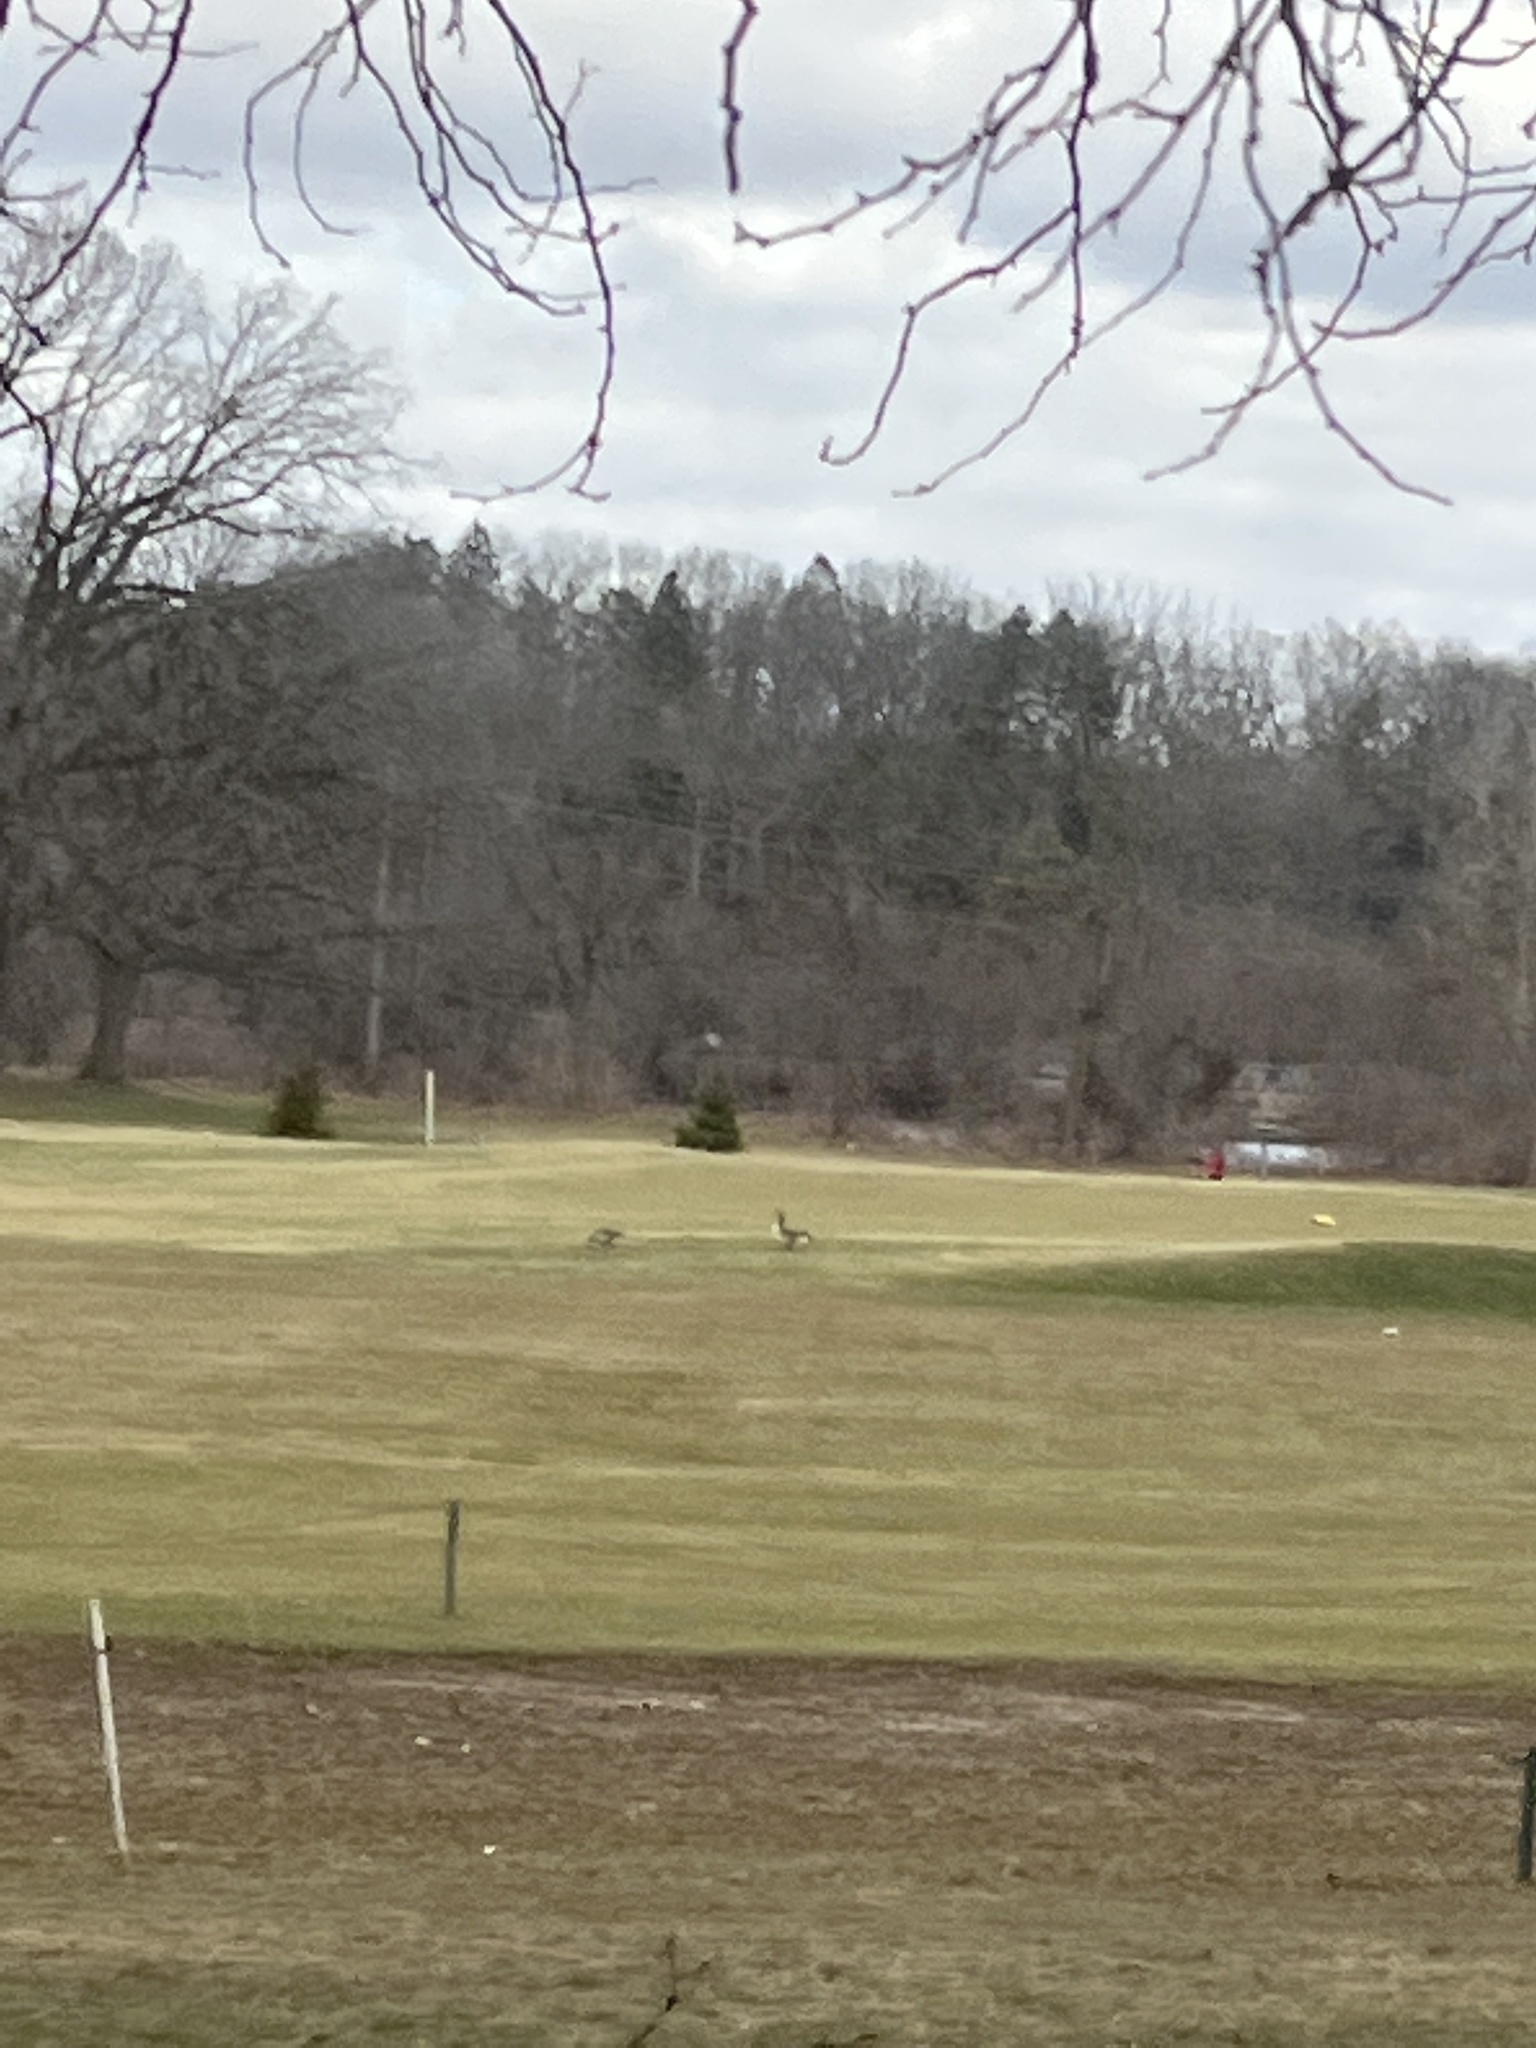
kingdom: Animalia
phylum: Chordata
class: Aves
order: Anseriformes
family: Anatidae
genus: Branta
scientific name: Branta canadensis
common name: Canada goose
